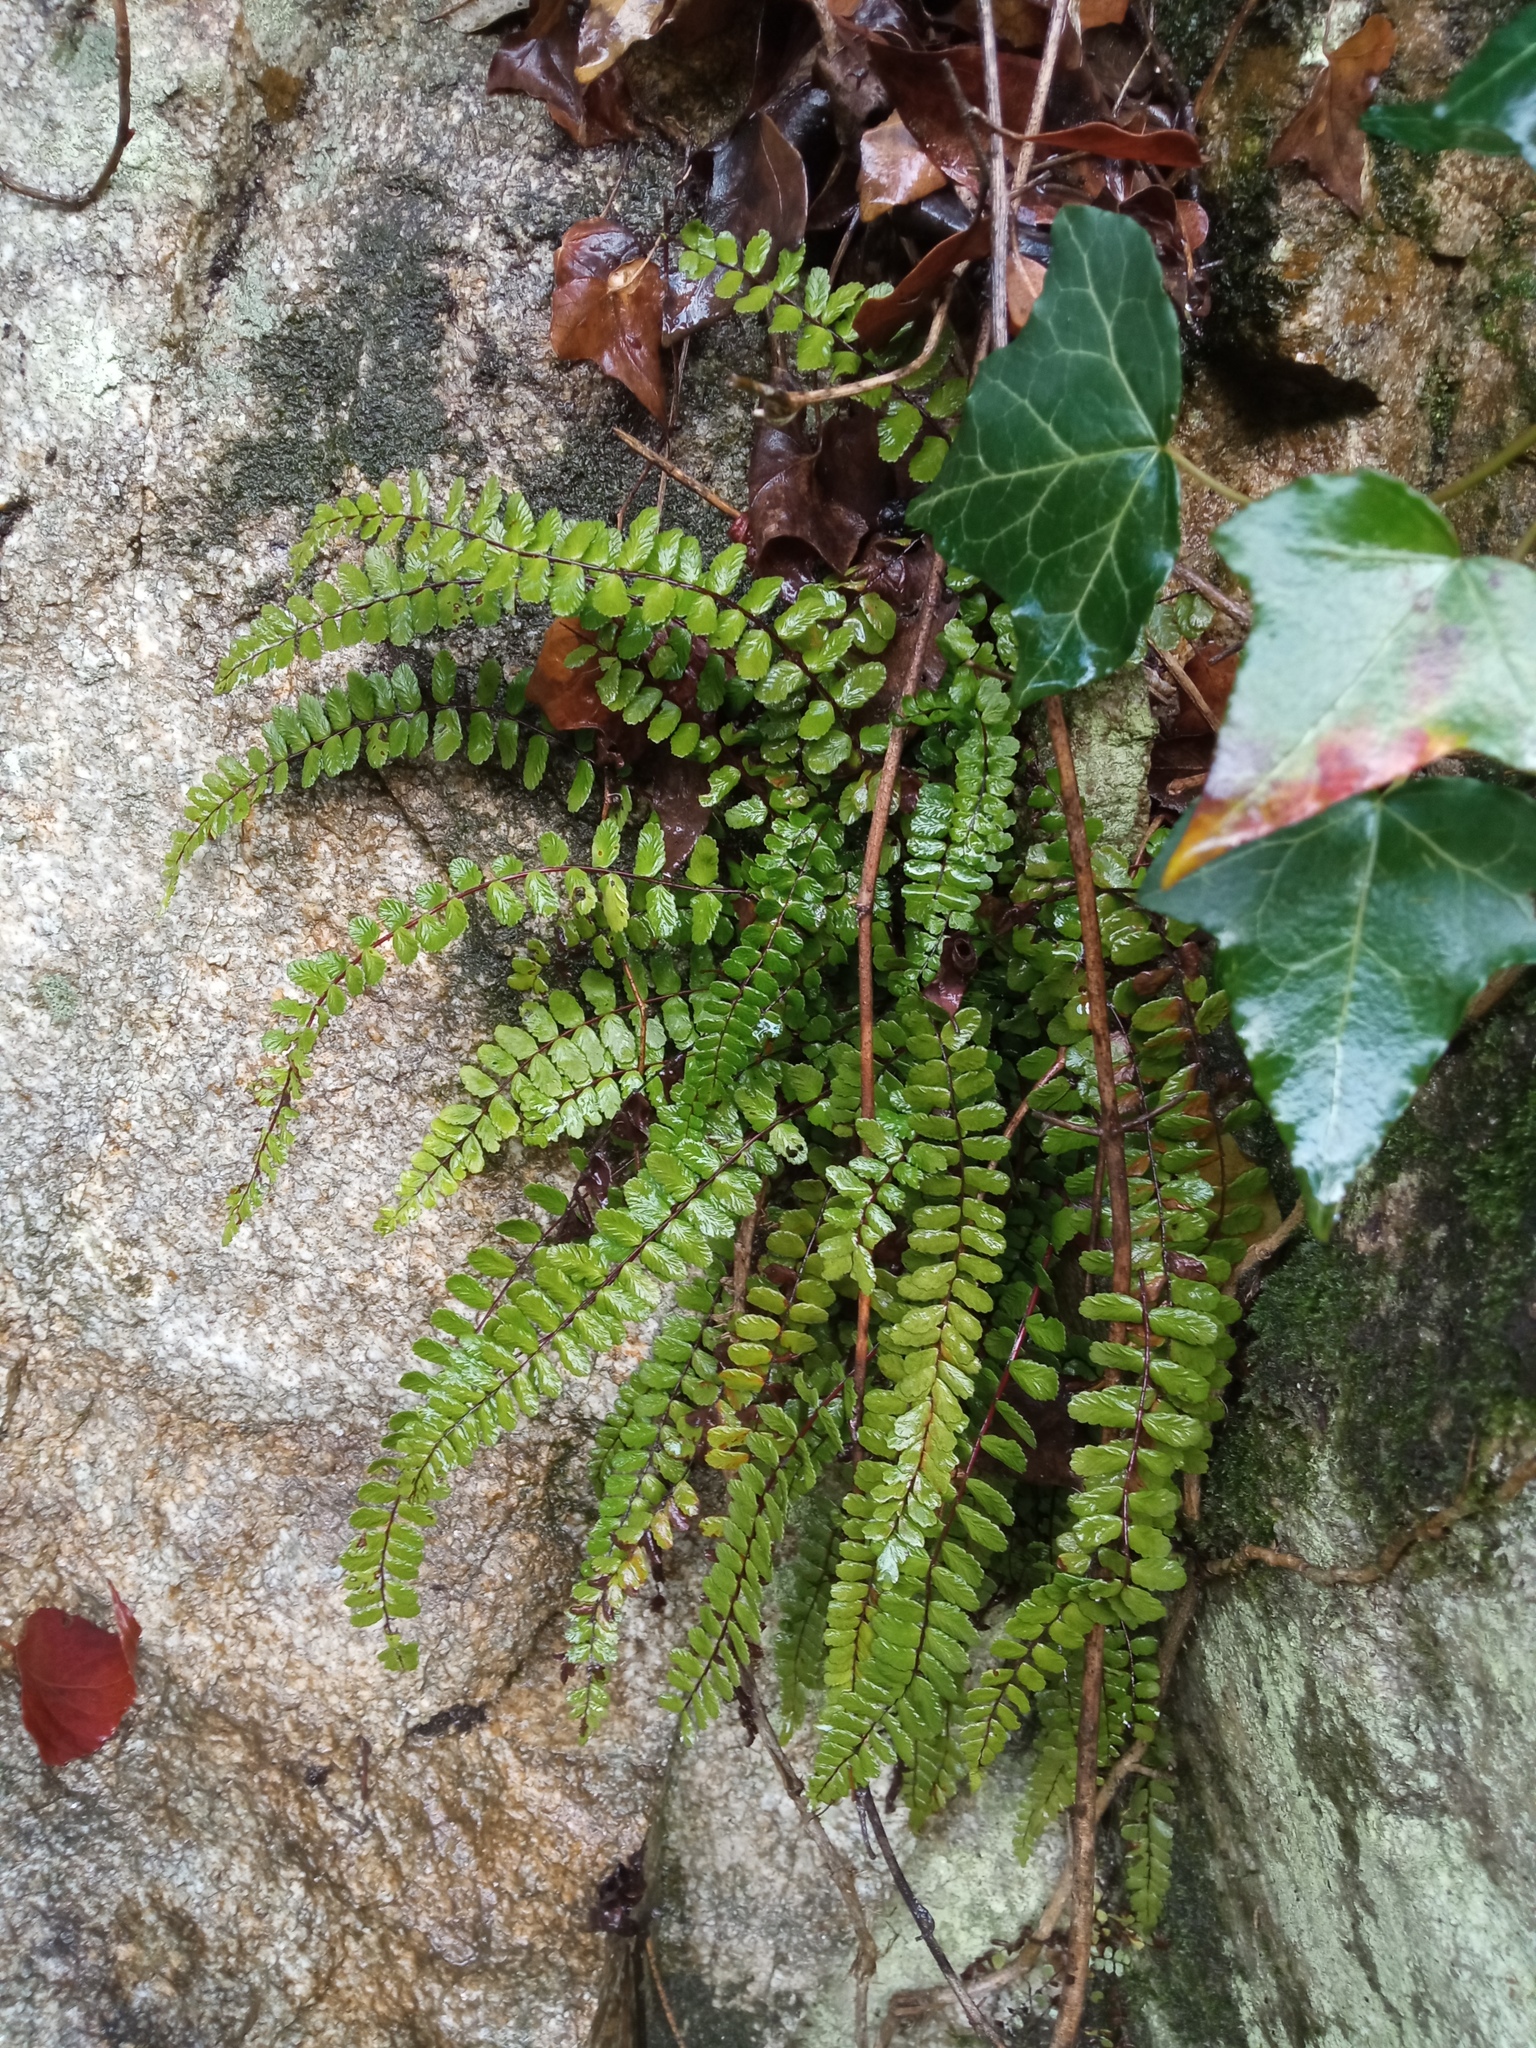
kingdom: Plantae
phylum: Tracheophyta
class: Polypodiopsida
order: Polypodiales
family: Aspleniaceae
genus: Asplenium
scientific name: Asplenium trichomanes
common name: Maidenhair spleenwort
